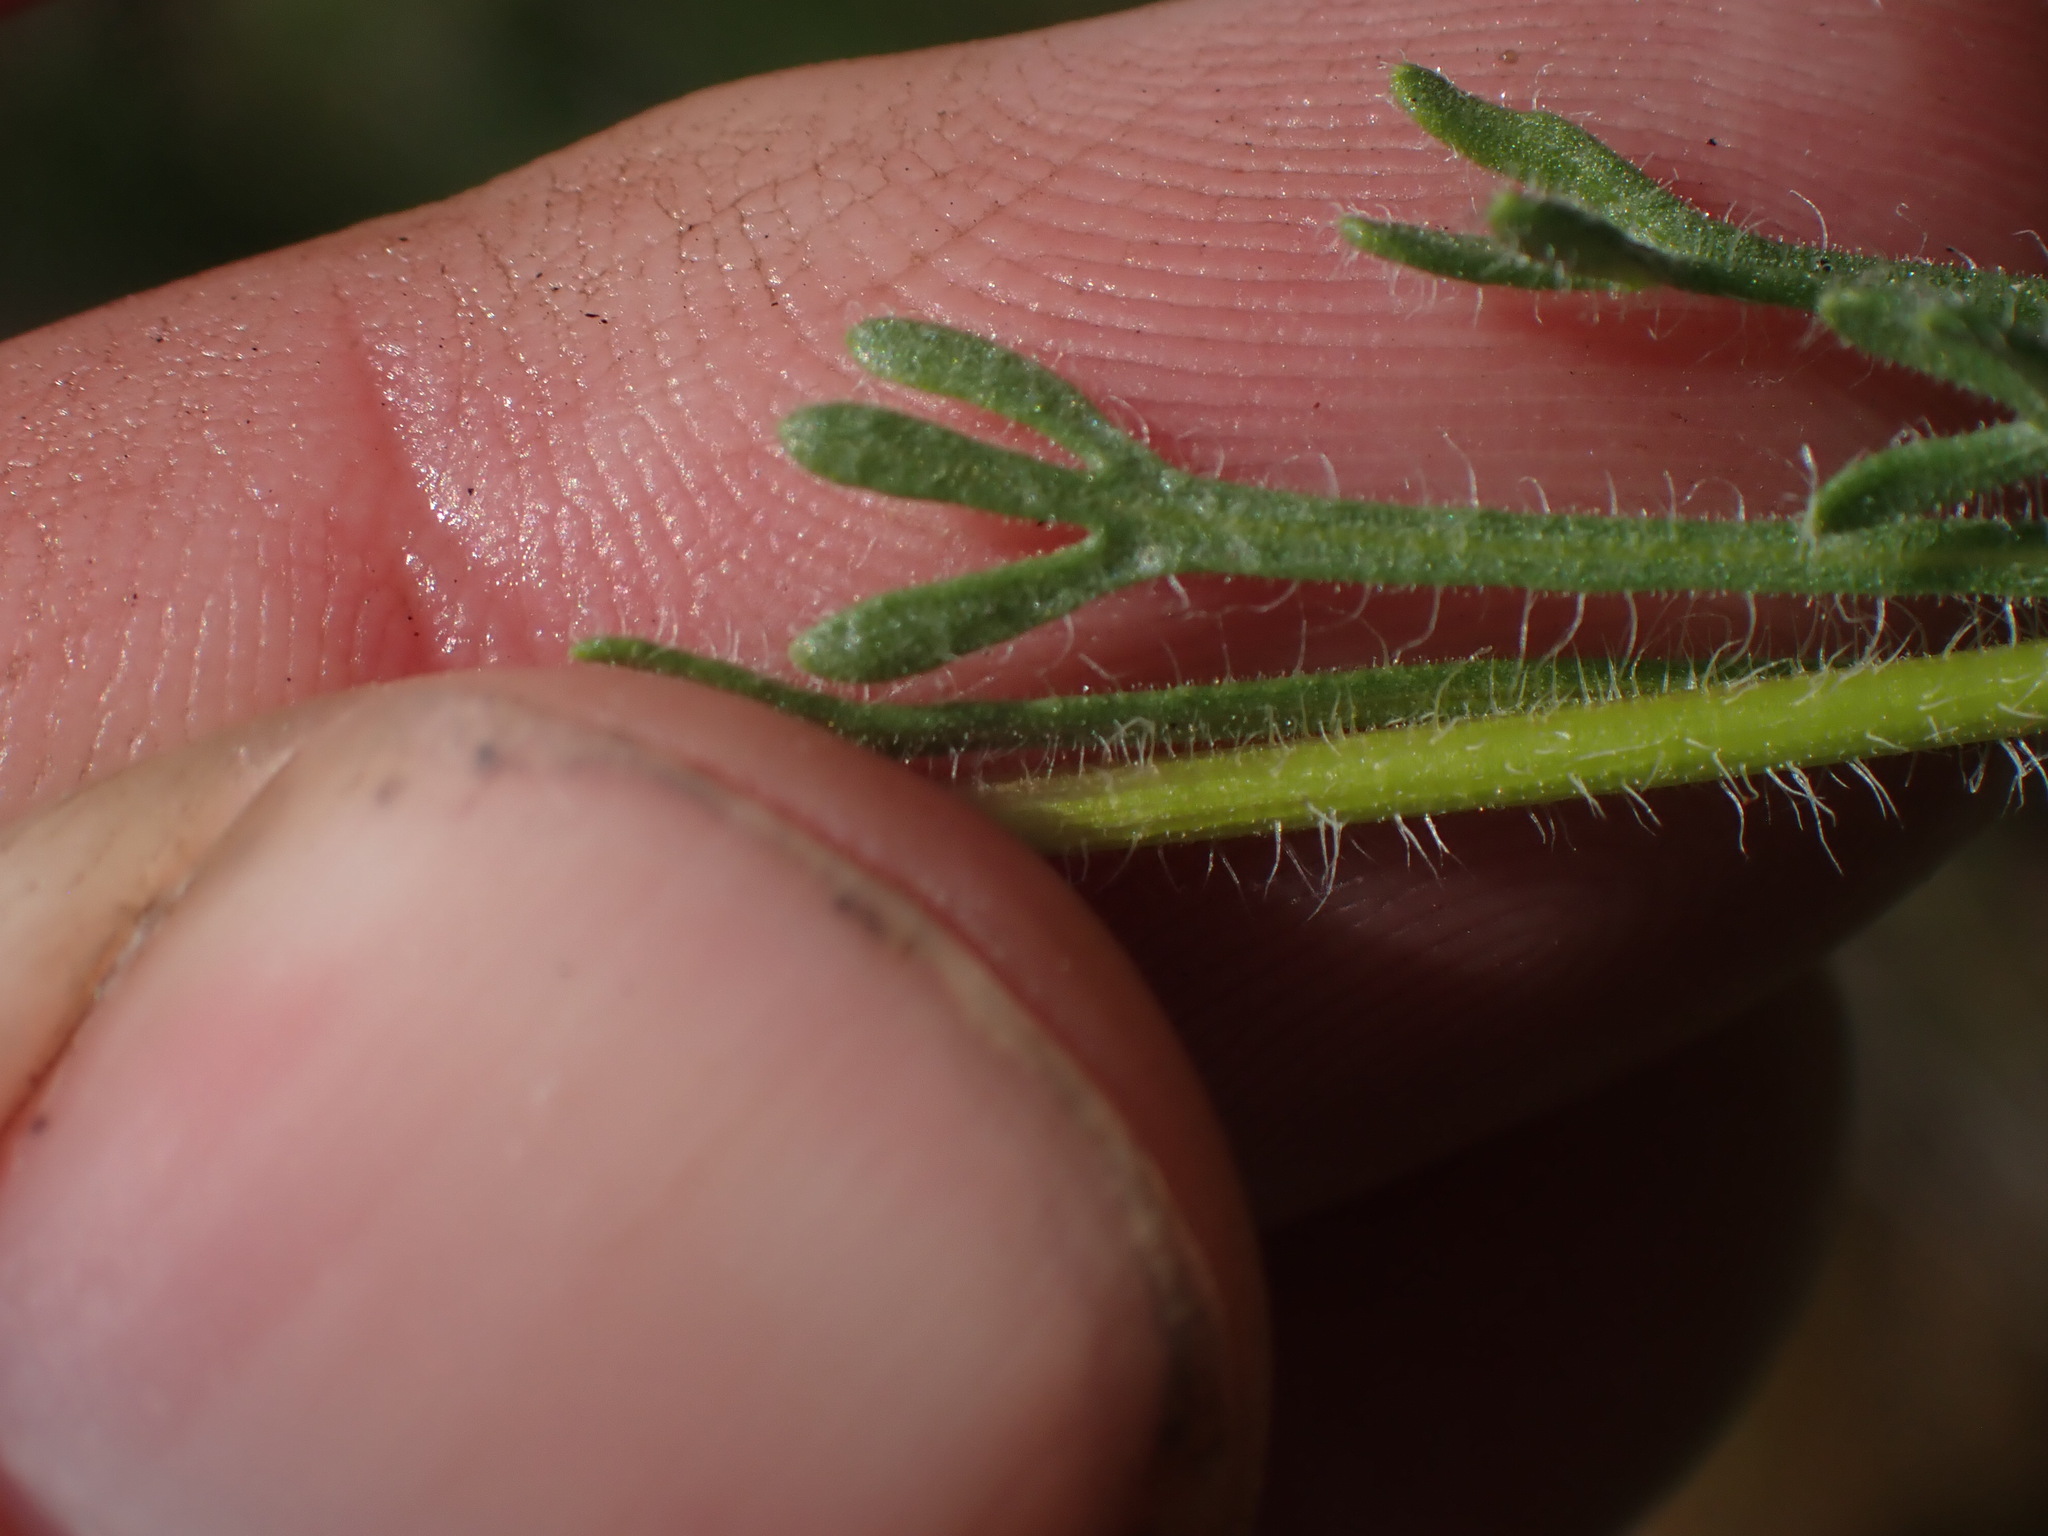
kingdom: Plantae
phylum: Tracheophyta
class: Magnoliopsida
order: Asterales
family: Asteraceae
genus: Erigeron
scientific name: Erigeron compositus
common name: Dwarf mountain fleabane
